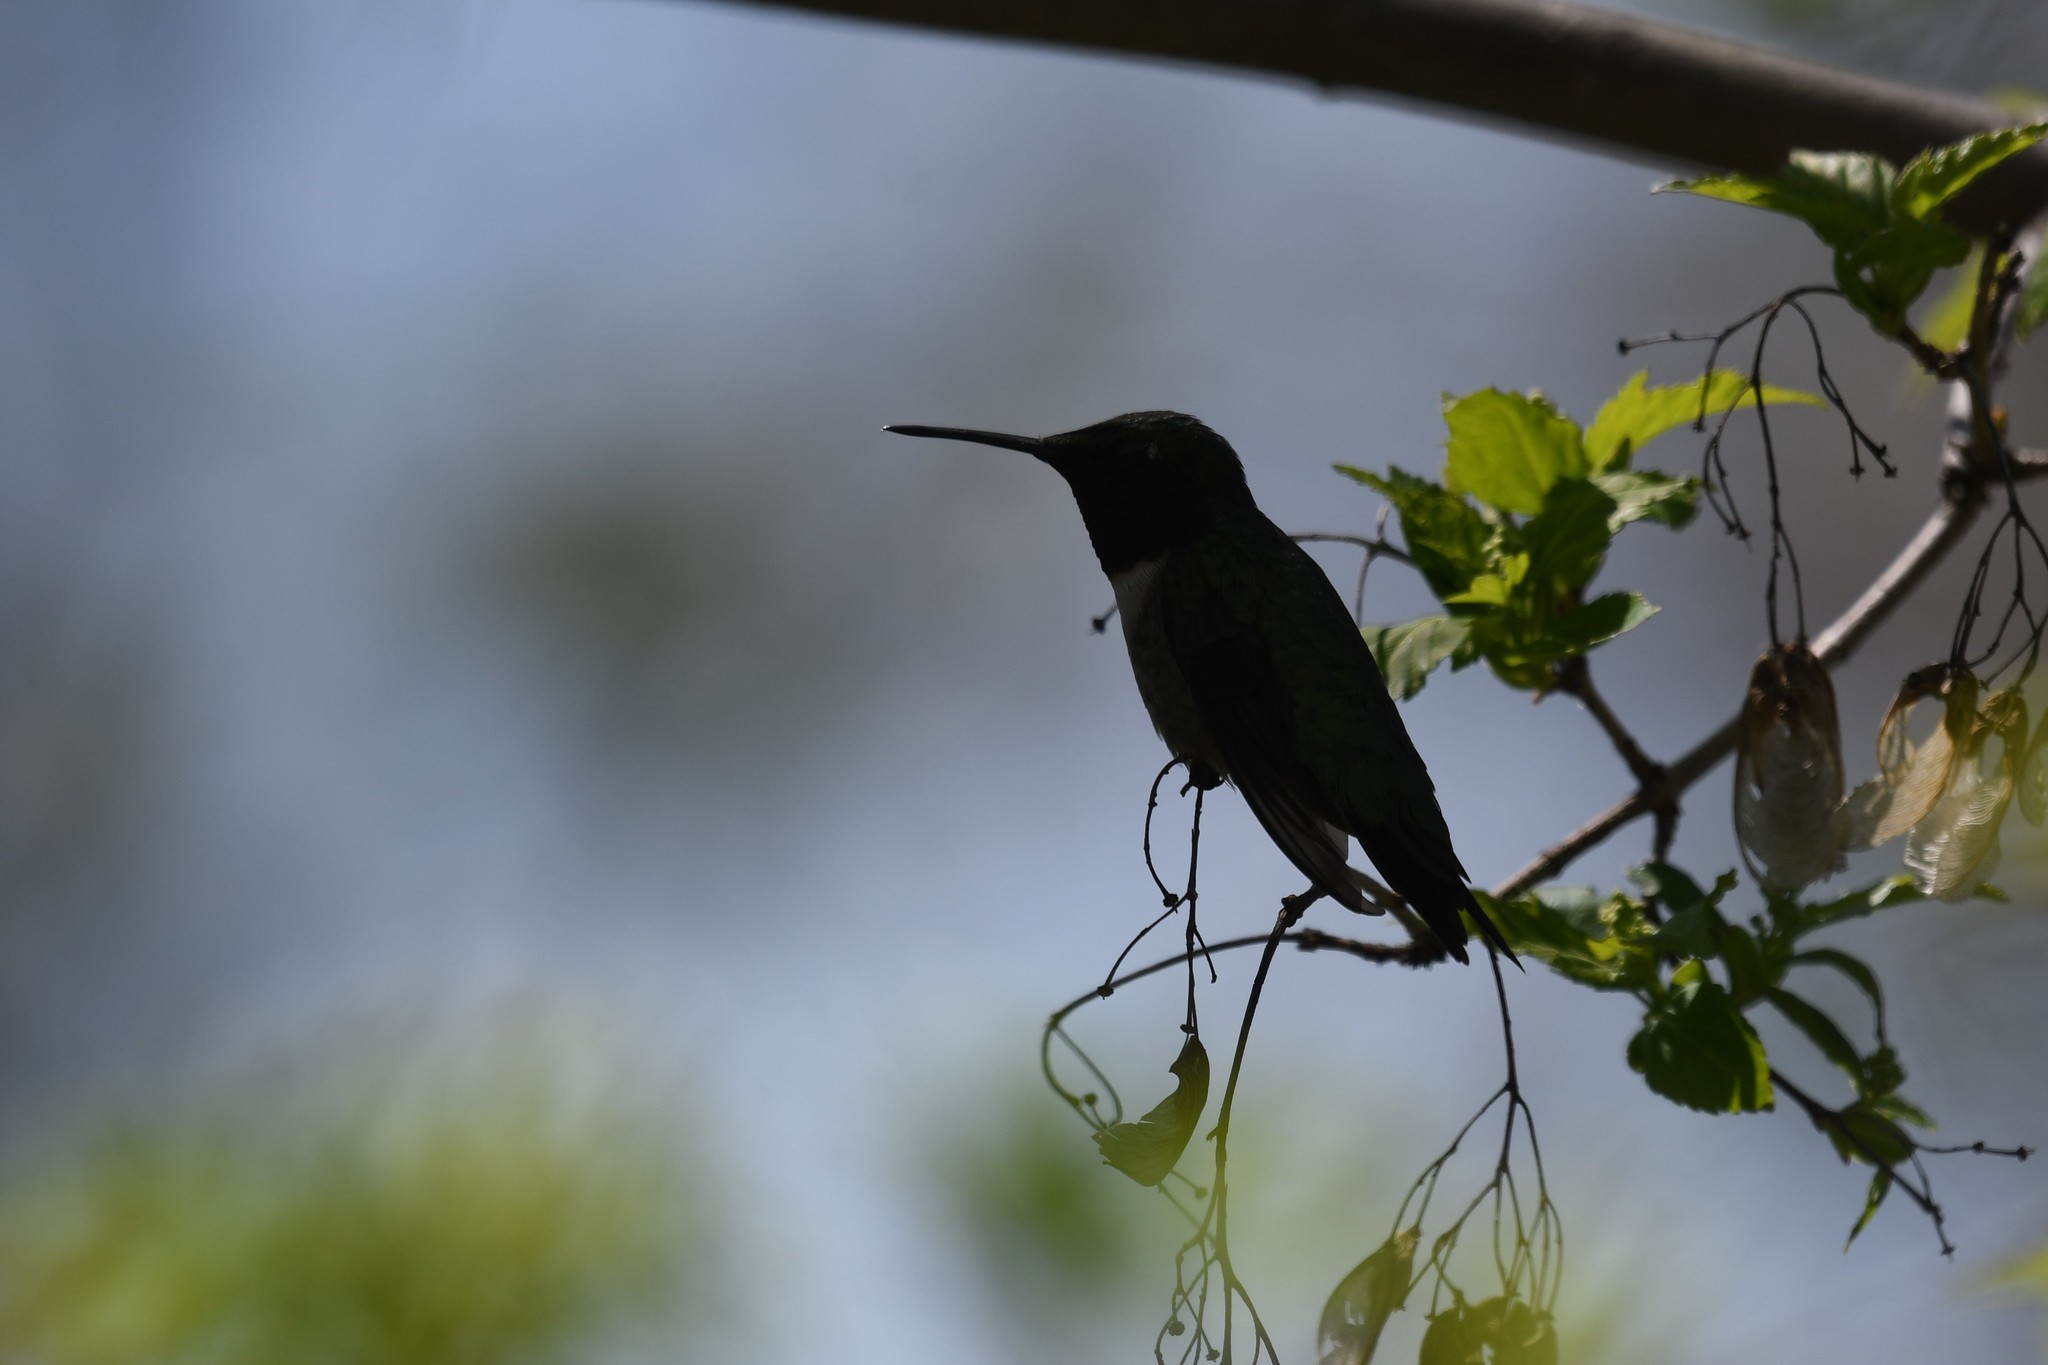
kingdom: Animalia
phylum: Chordata
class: Aves
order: Apodiformes
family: Trochilidae
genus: Archilochus
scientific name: Archilochus colubris
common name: Ruby-throated hummingbird
